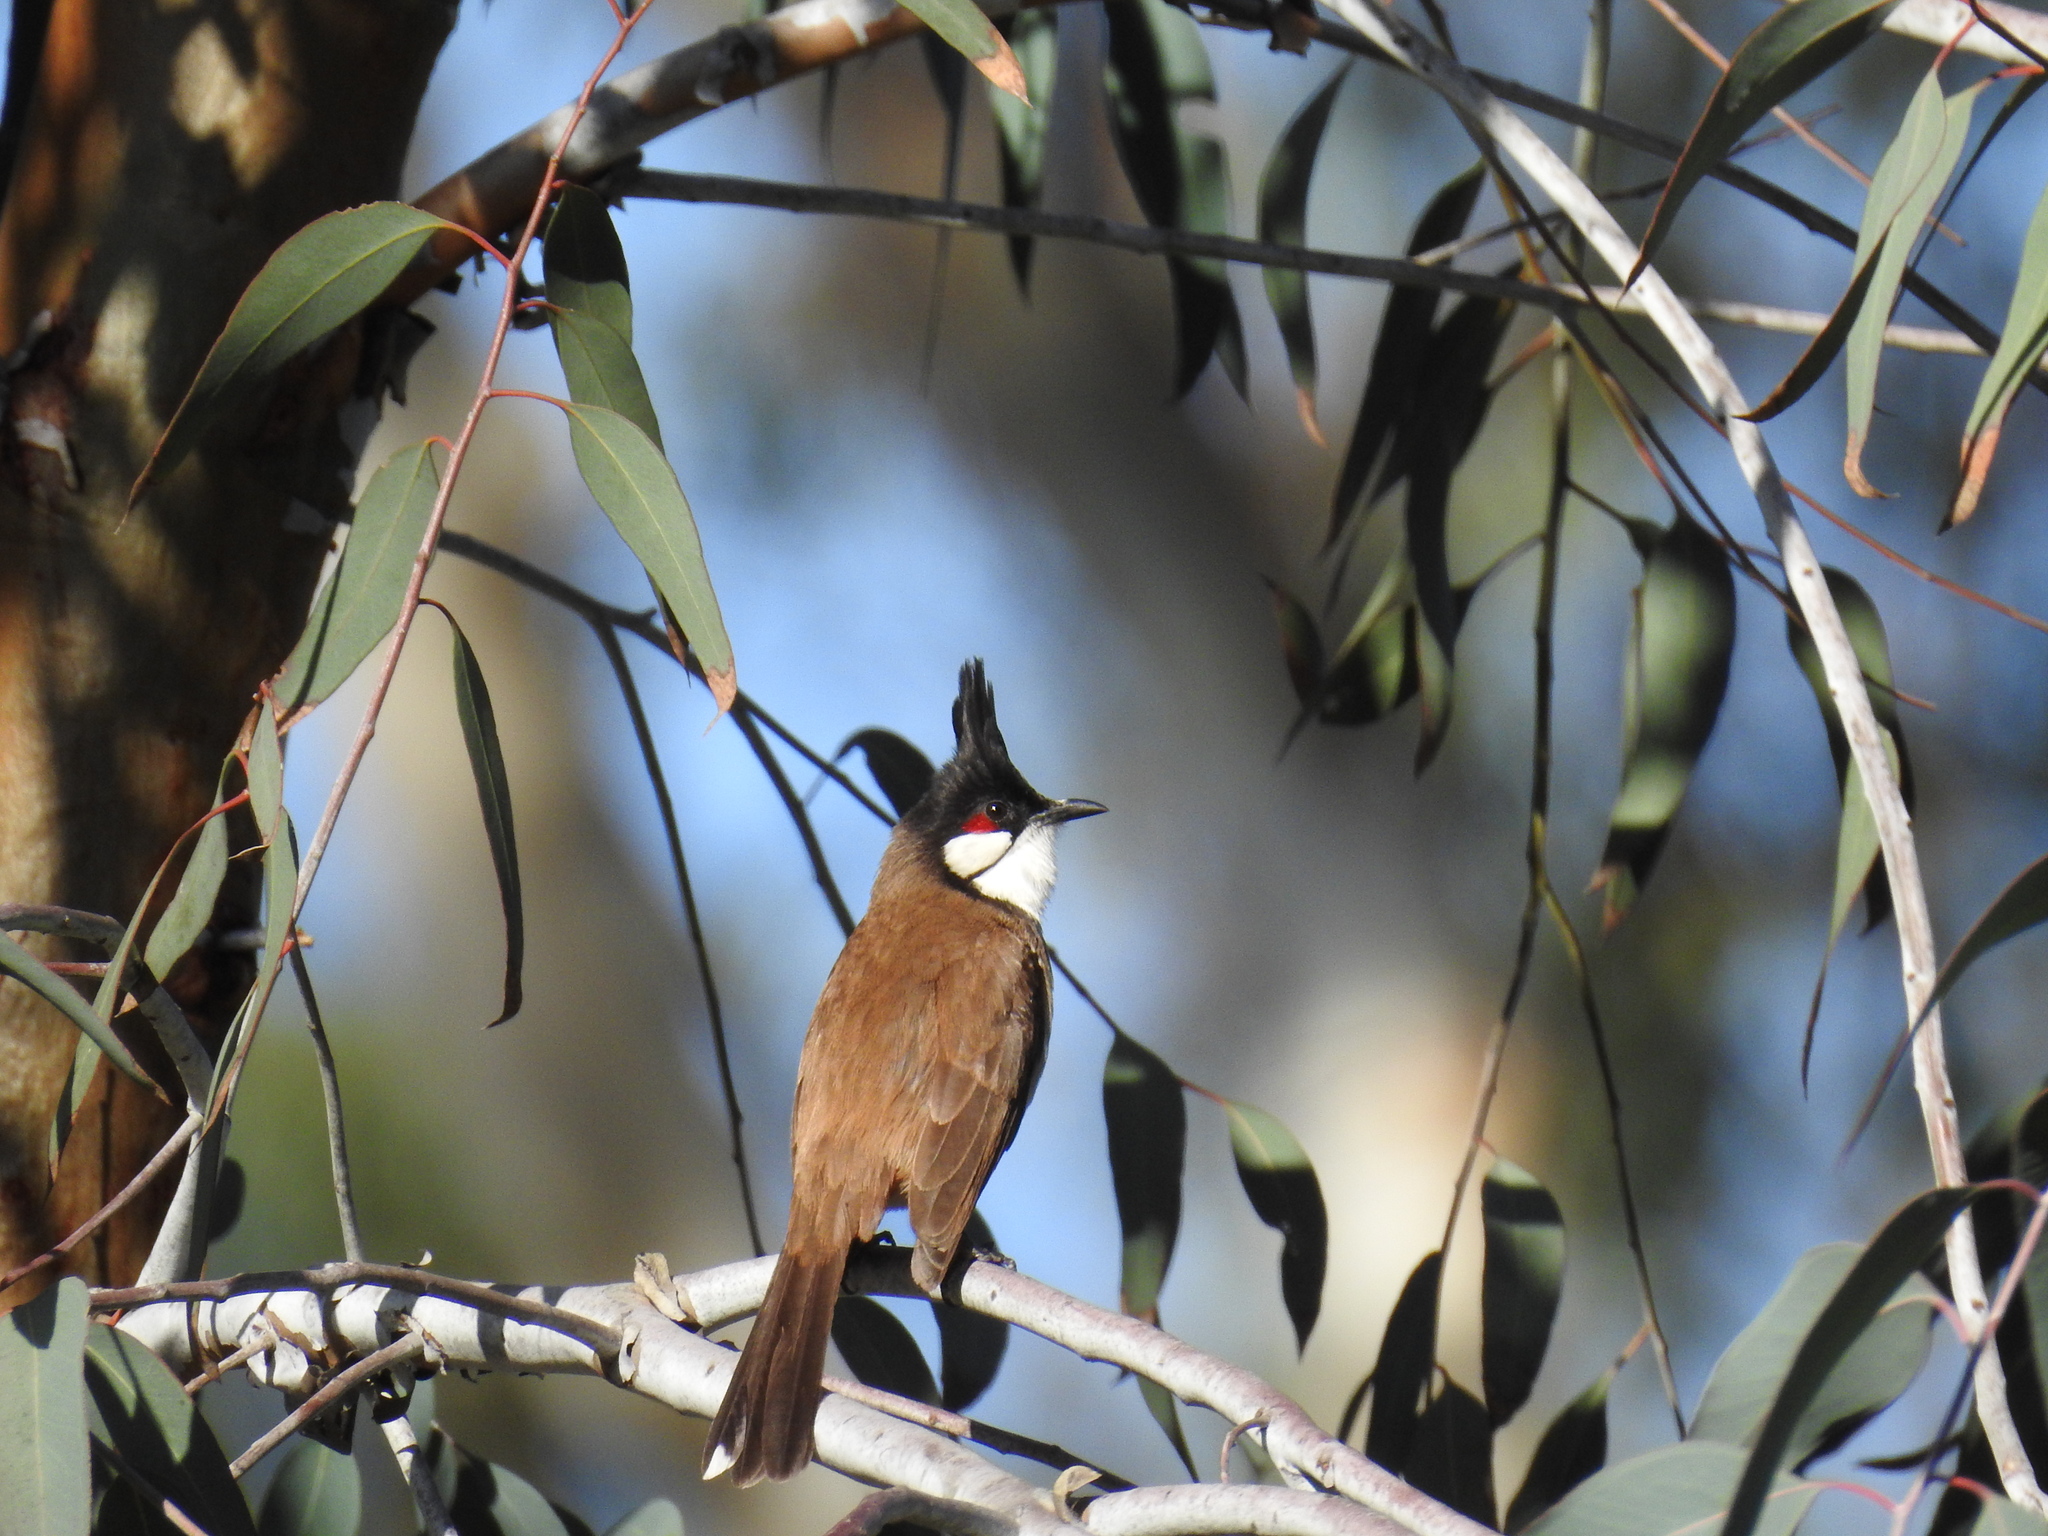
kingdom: Animalia
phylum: Chordata
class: Aves
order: Passeriformes
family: Pycnonotidae
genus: Pycnonotus
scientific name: Pycnonotus jocosus
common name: Red-whiskered bulbul
